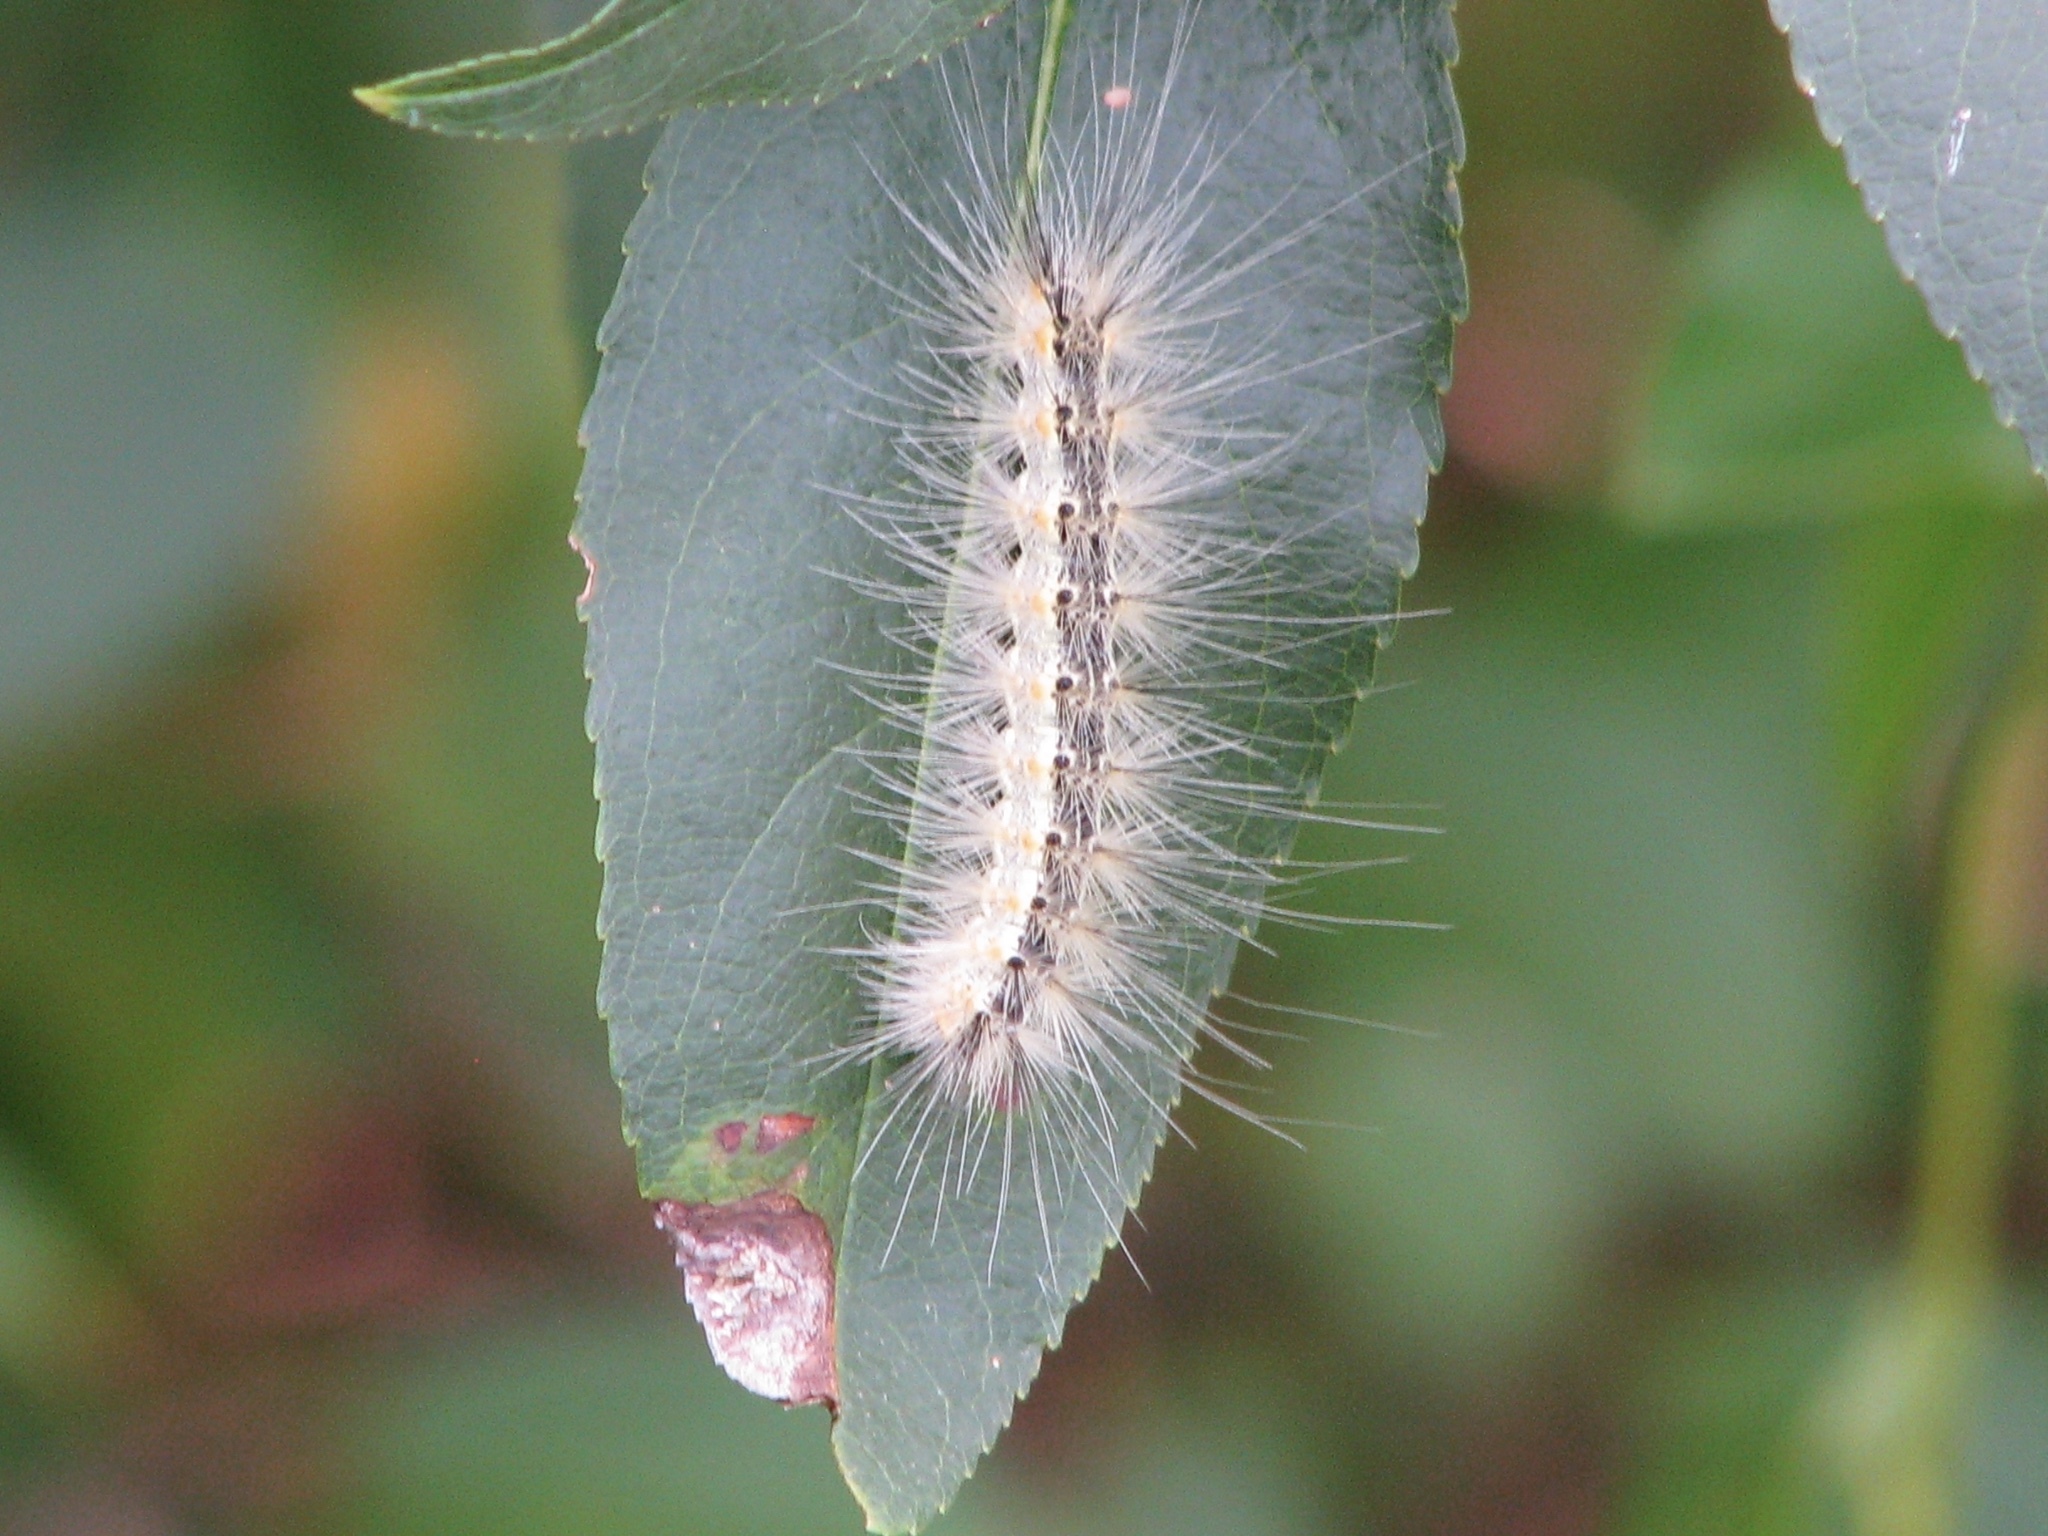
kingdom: Animalia
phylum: Arthropoda
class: Insecta
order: Lepidoptera
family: Erebidae
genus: Hyphantria
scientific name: Hyphantria cunea
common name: American white moth
